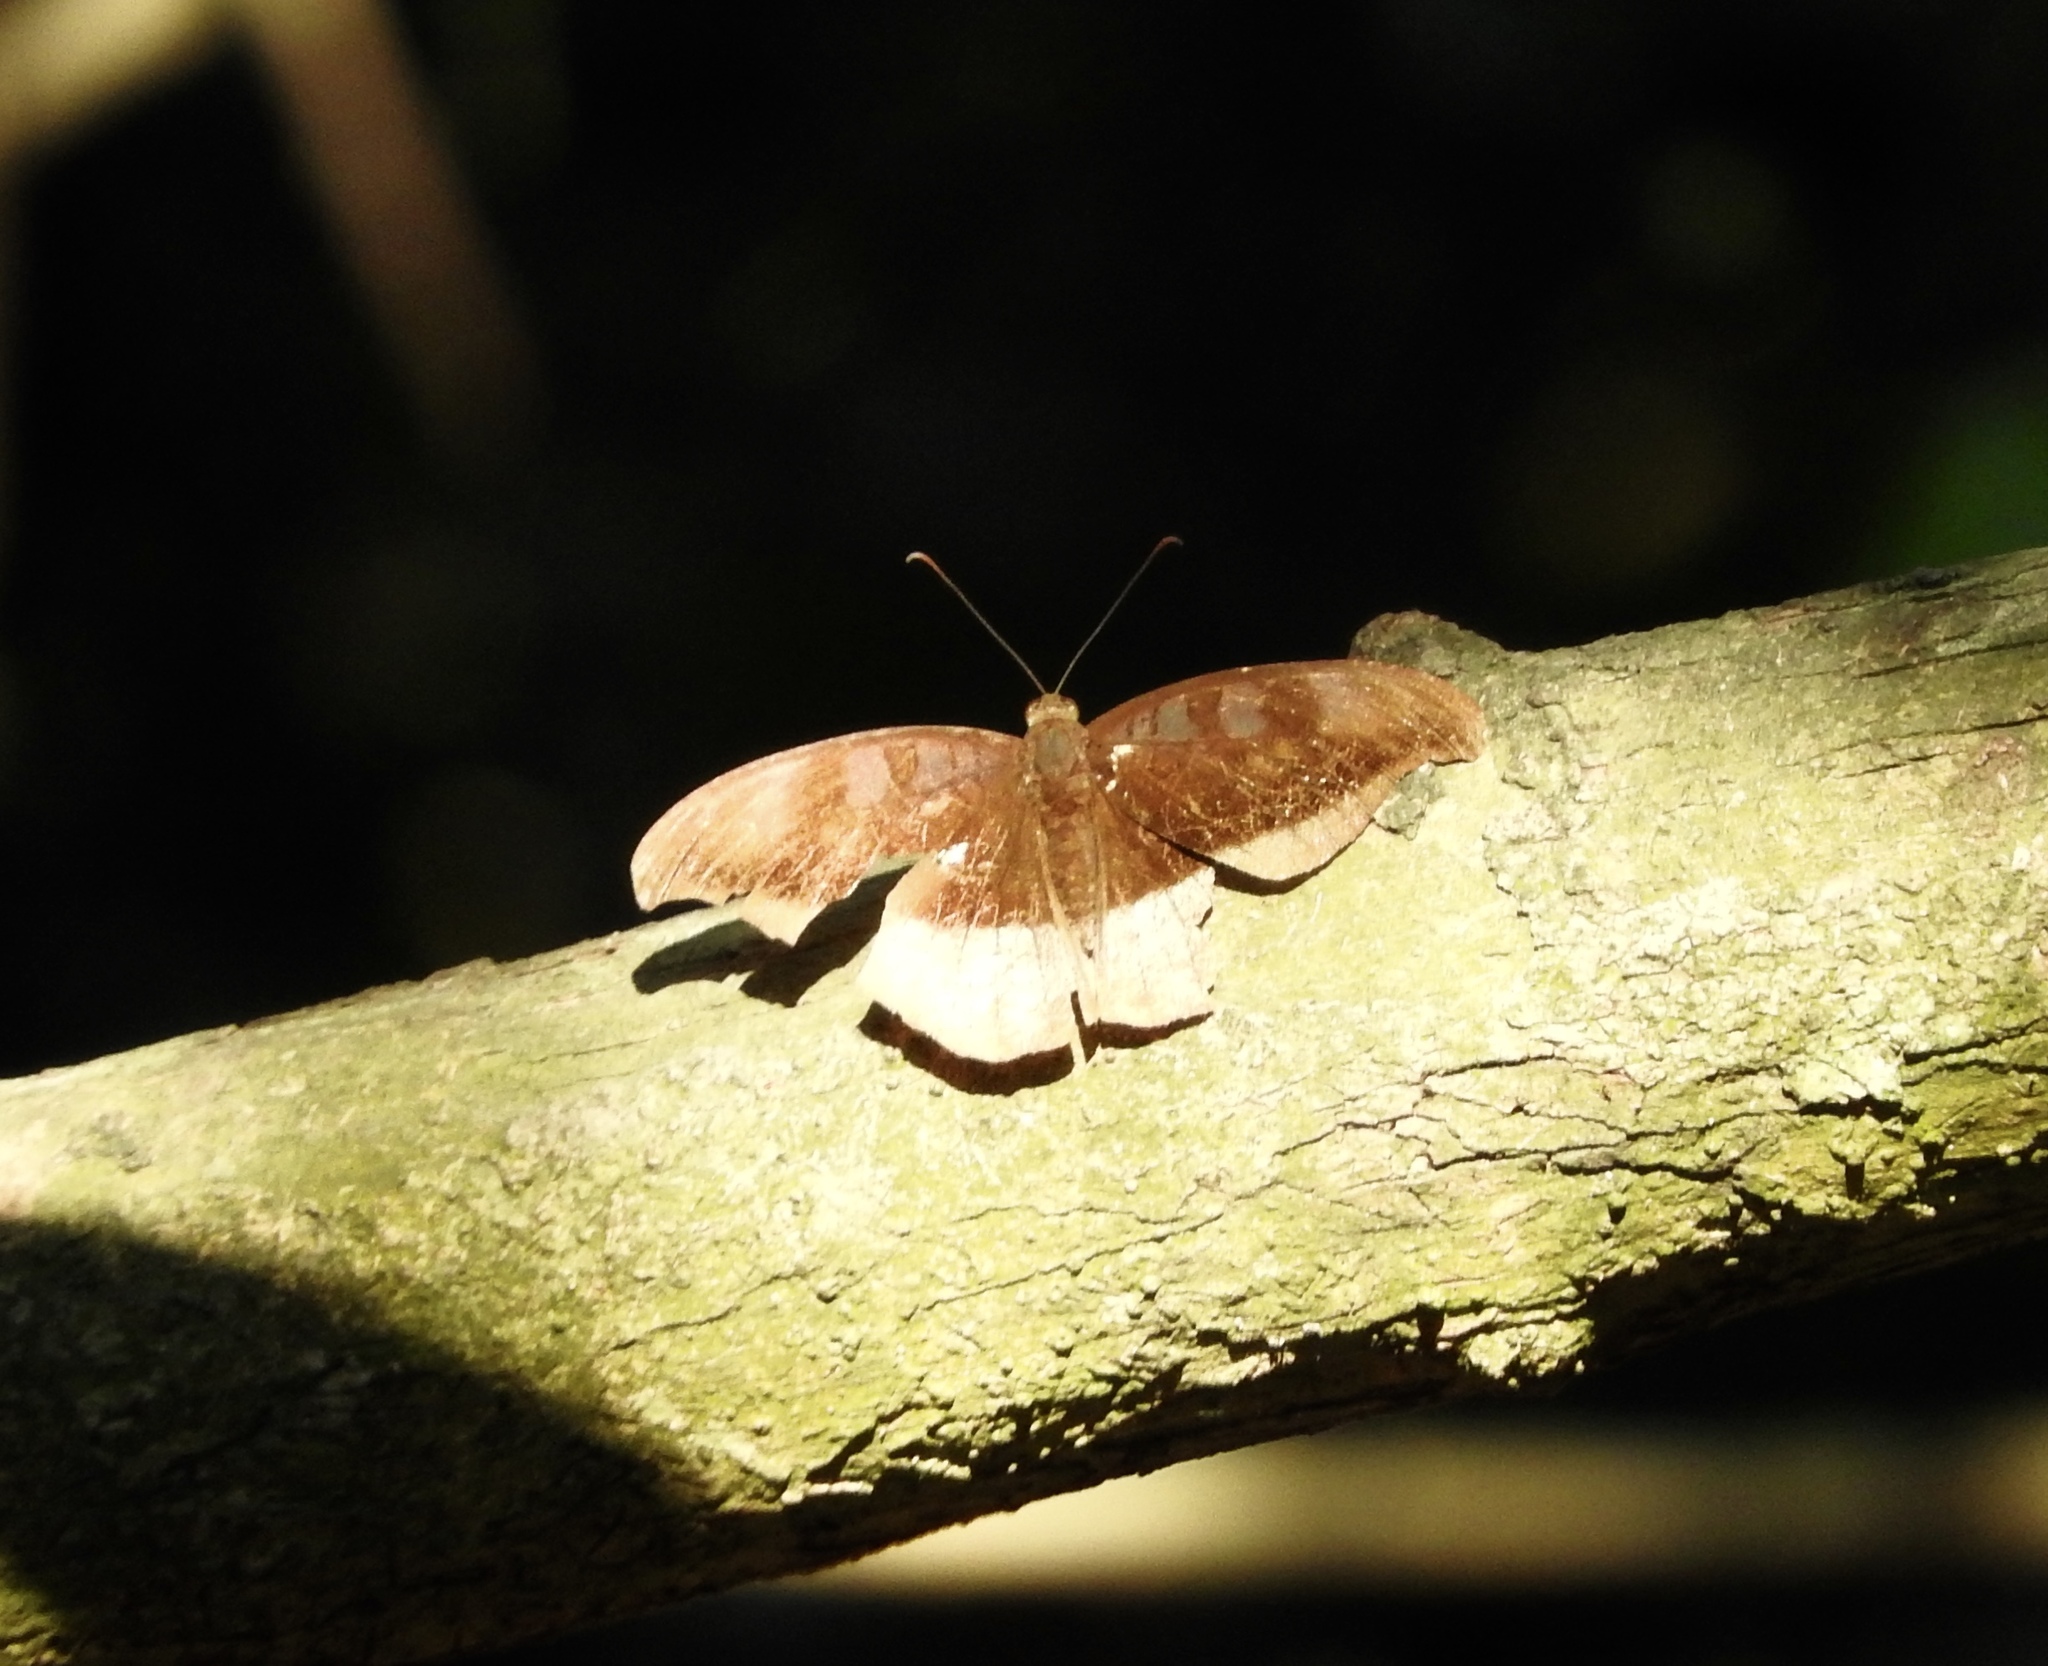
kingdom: Animalia
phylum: Arthropoda
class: Insecta
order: Lepidoptera
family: Nymphalidae
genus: Tanaecia
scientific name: Tanaecia cocytus
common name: Lavender count
